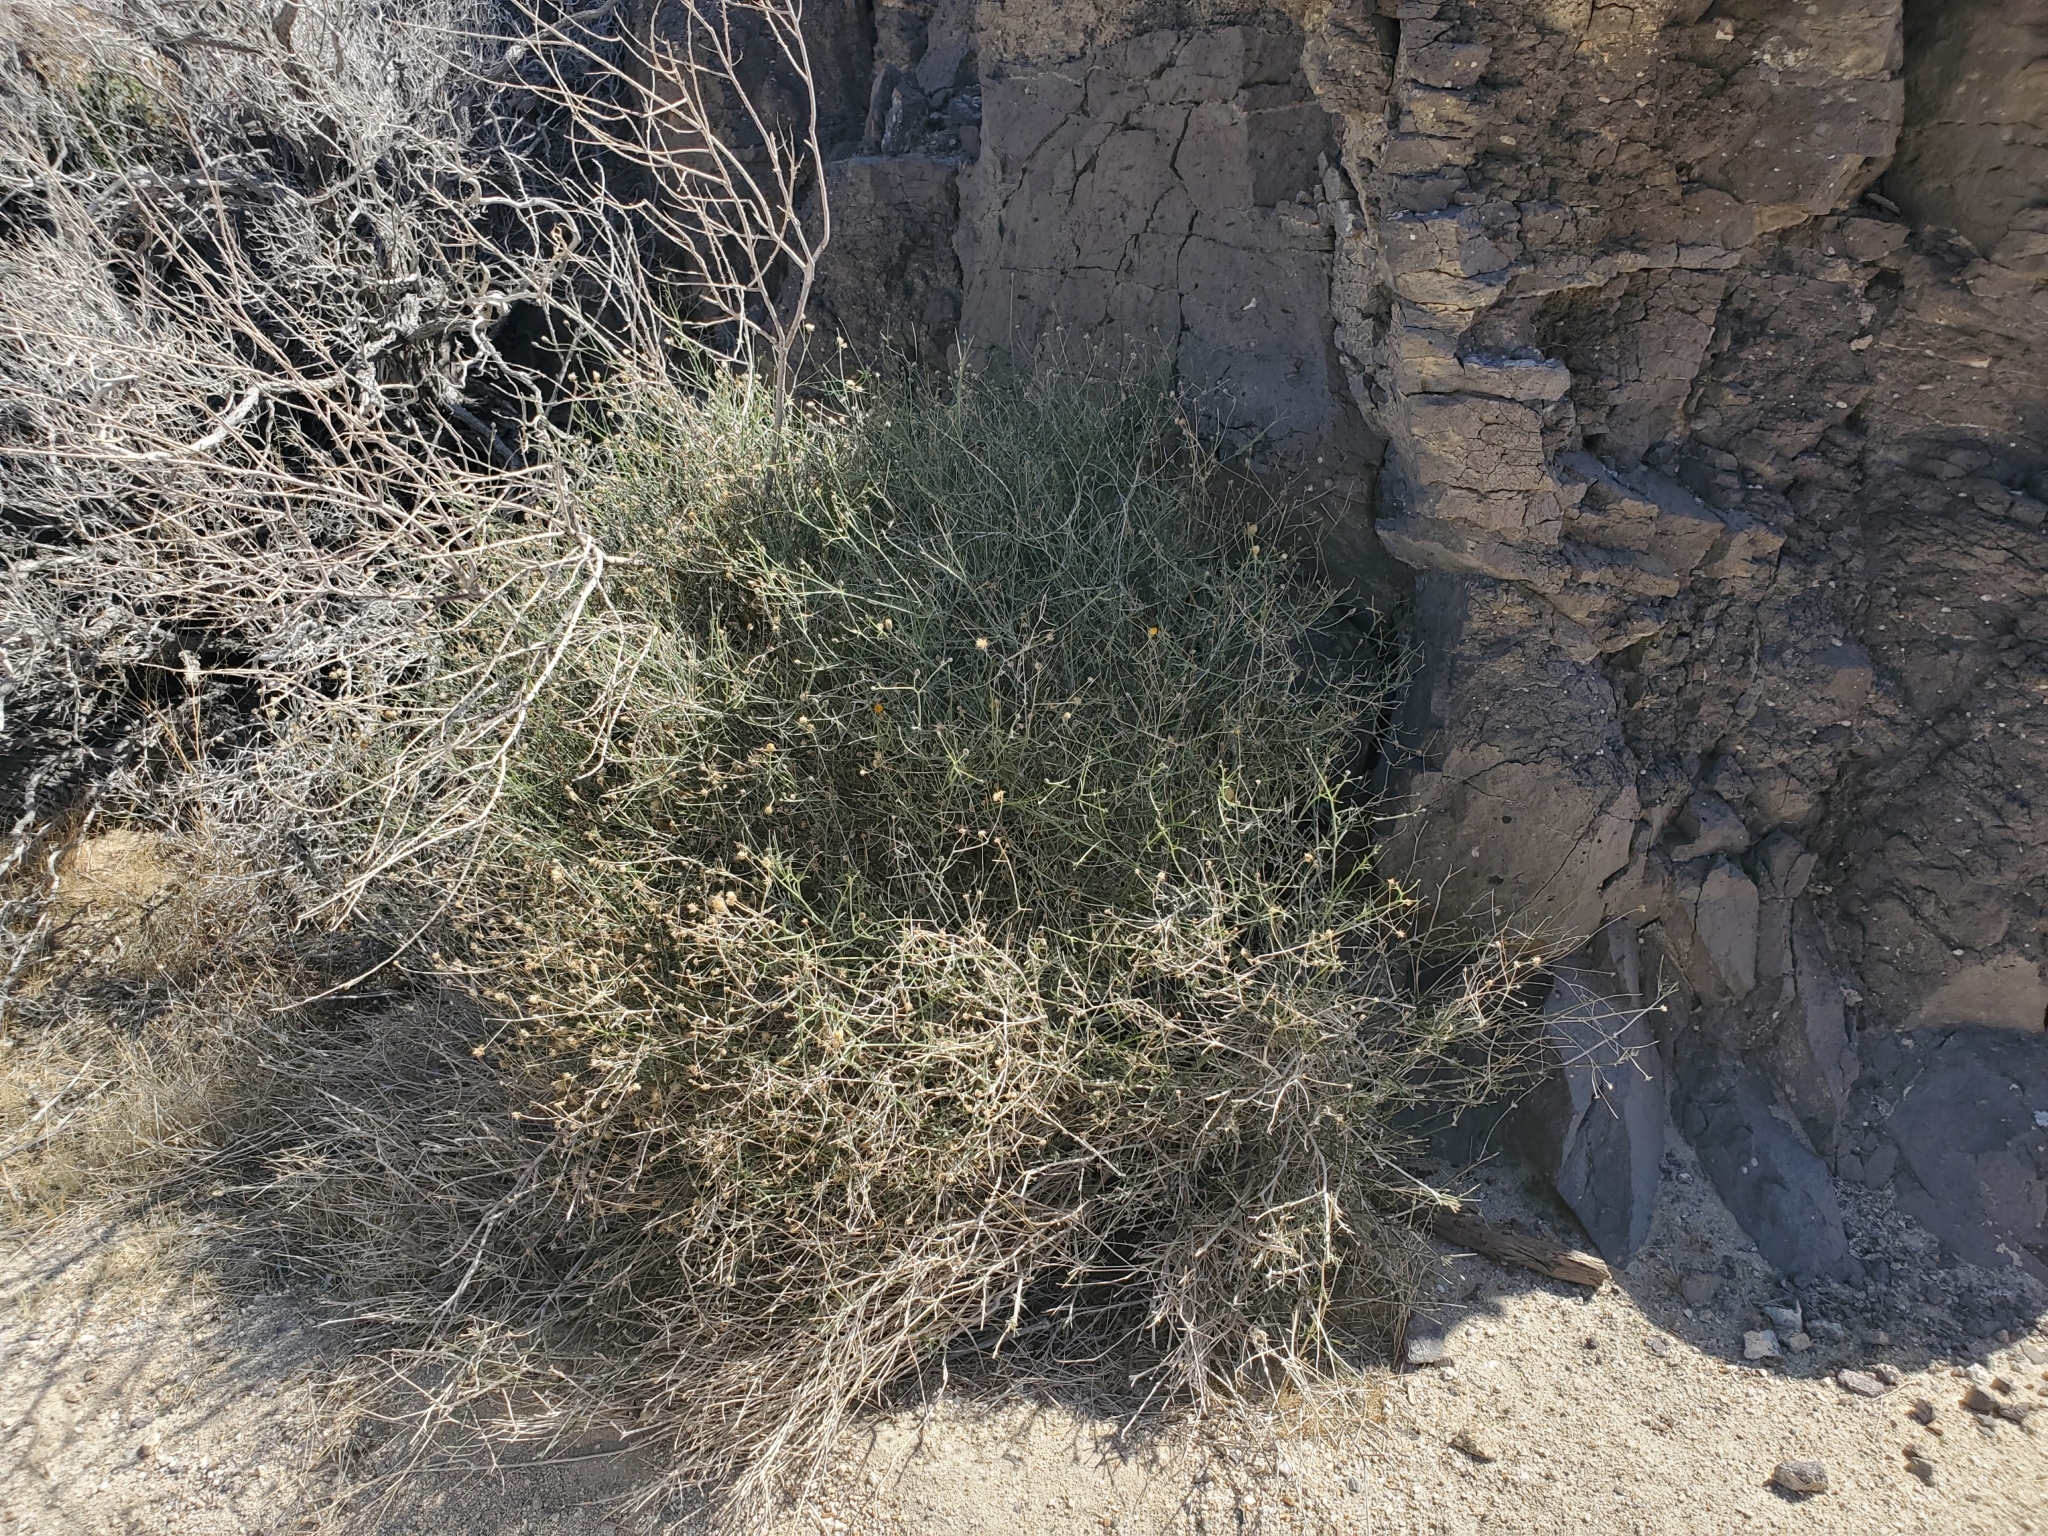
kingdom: Plantae
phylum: Tracheophyta
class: Magnoliopsida
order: Asterales
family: Asteraceae
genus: Bebbia
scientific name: Bebbia juncea
